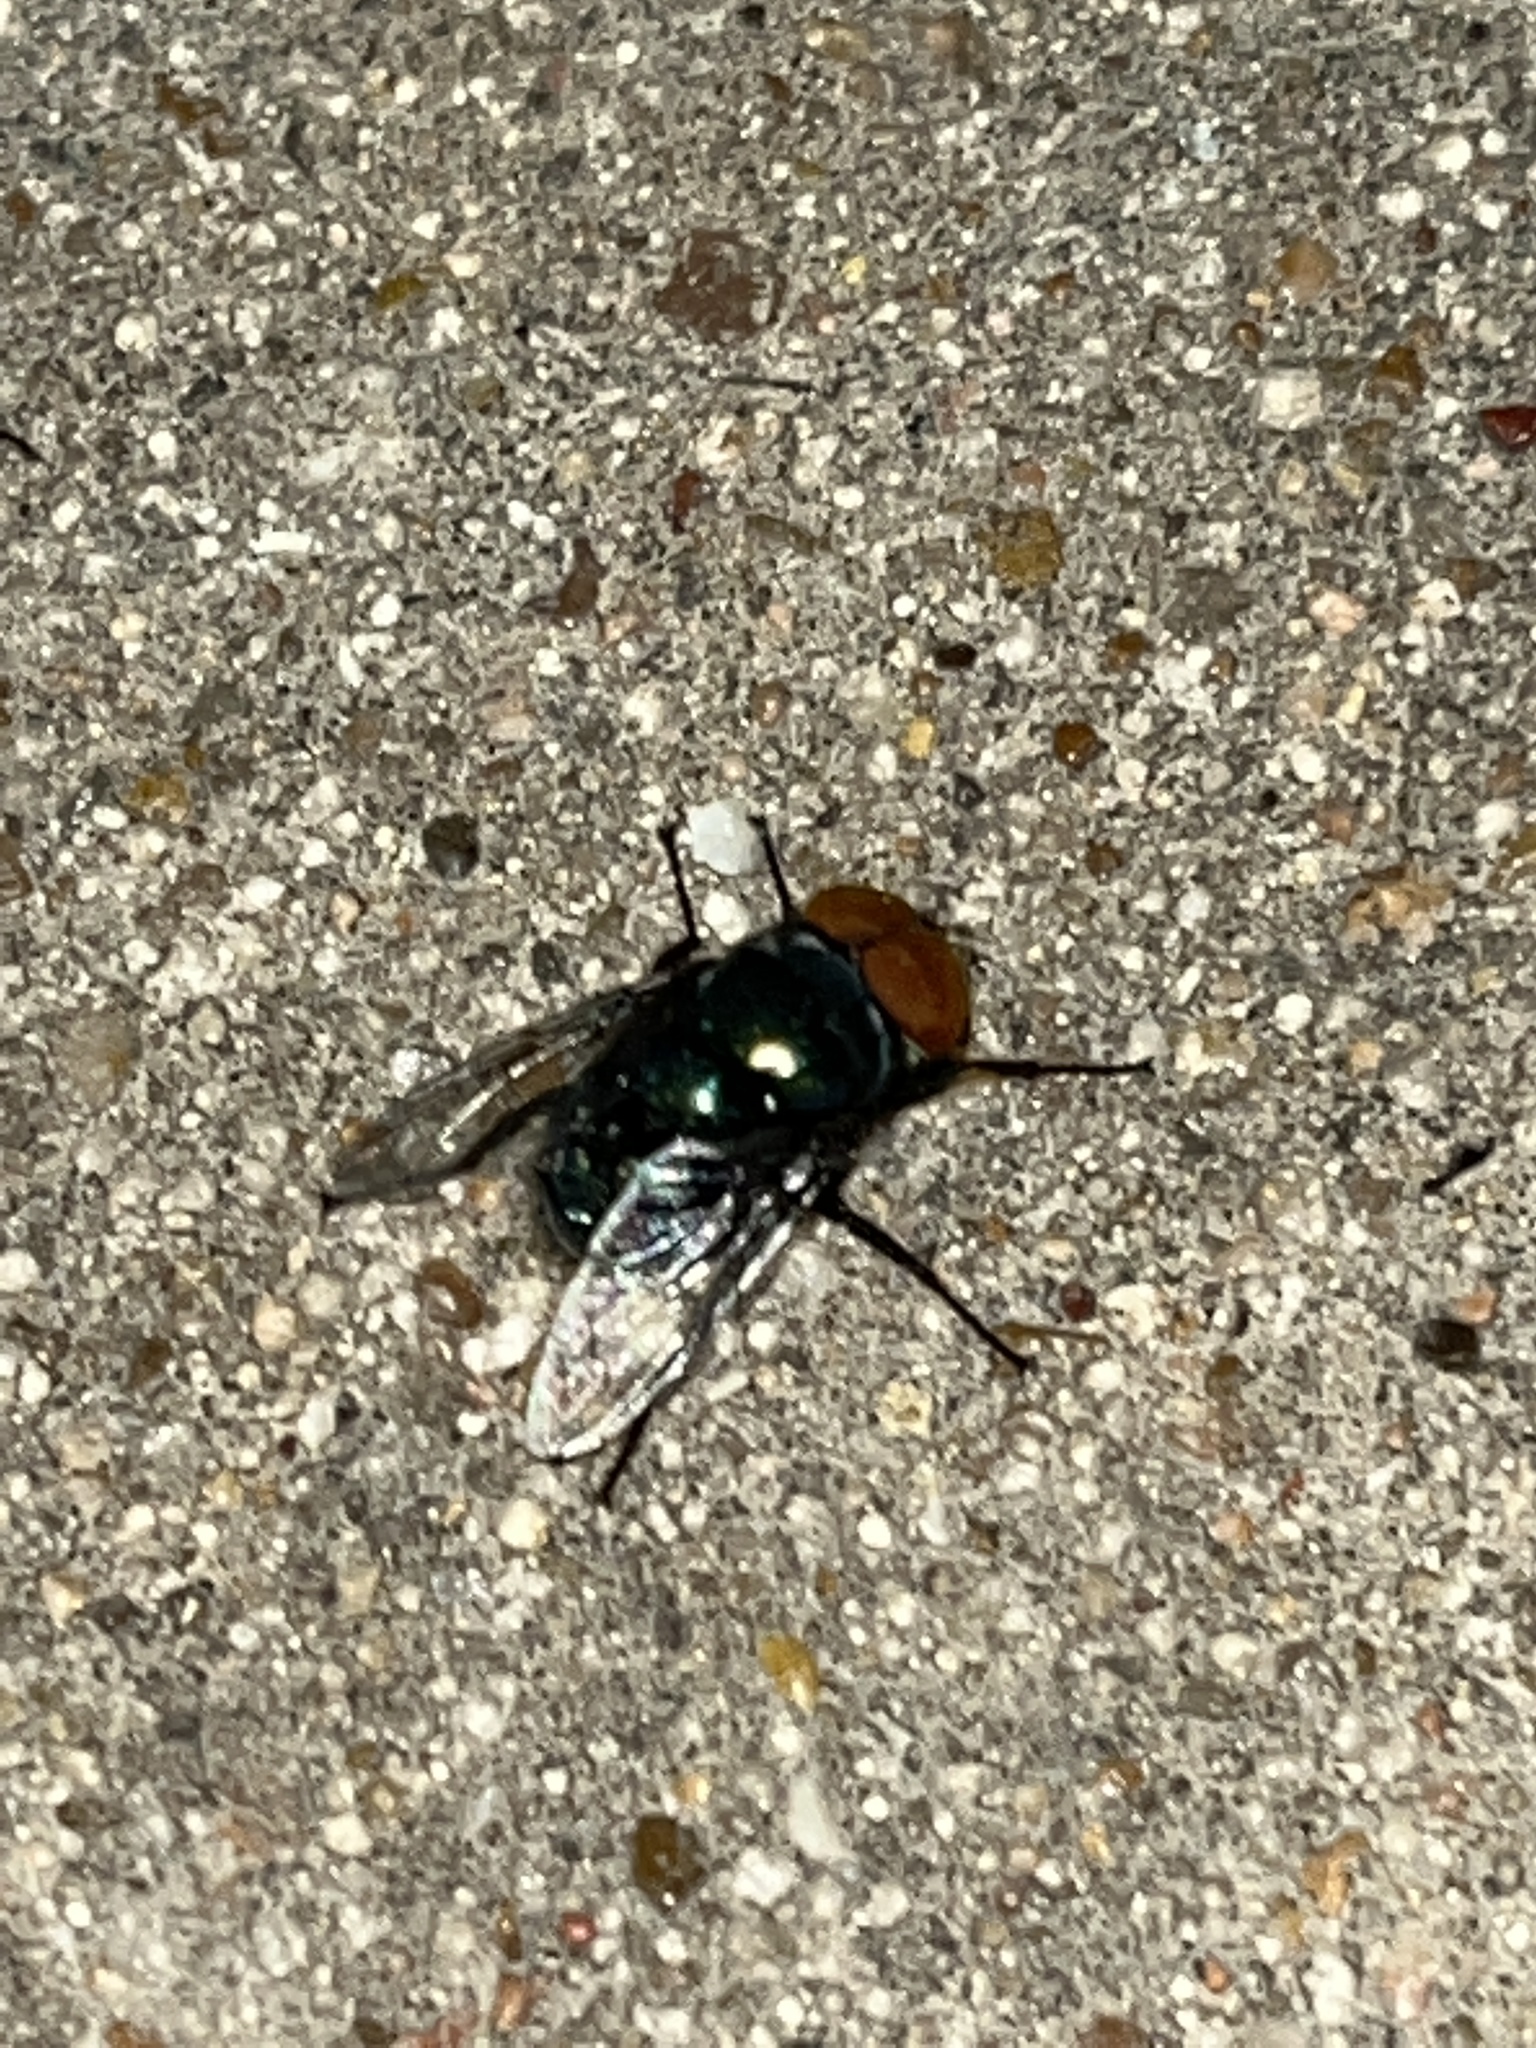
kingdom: Animalia
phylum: Arthropoda
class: Insecta
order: Diptera
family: Calliphoridae
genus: Chrysomya
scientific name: Chrysomya megacephala
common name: Blow fly
